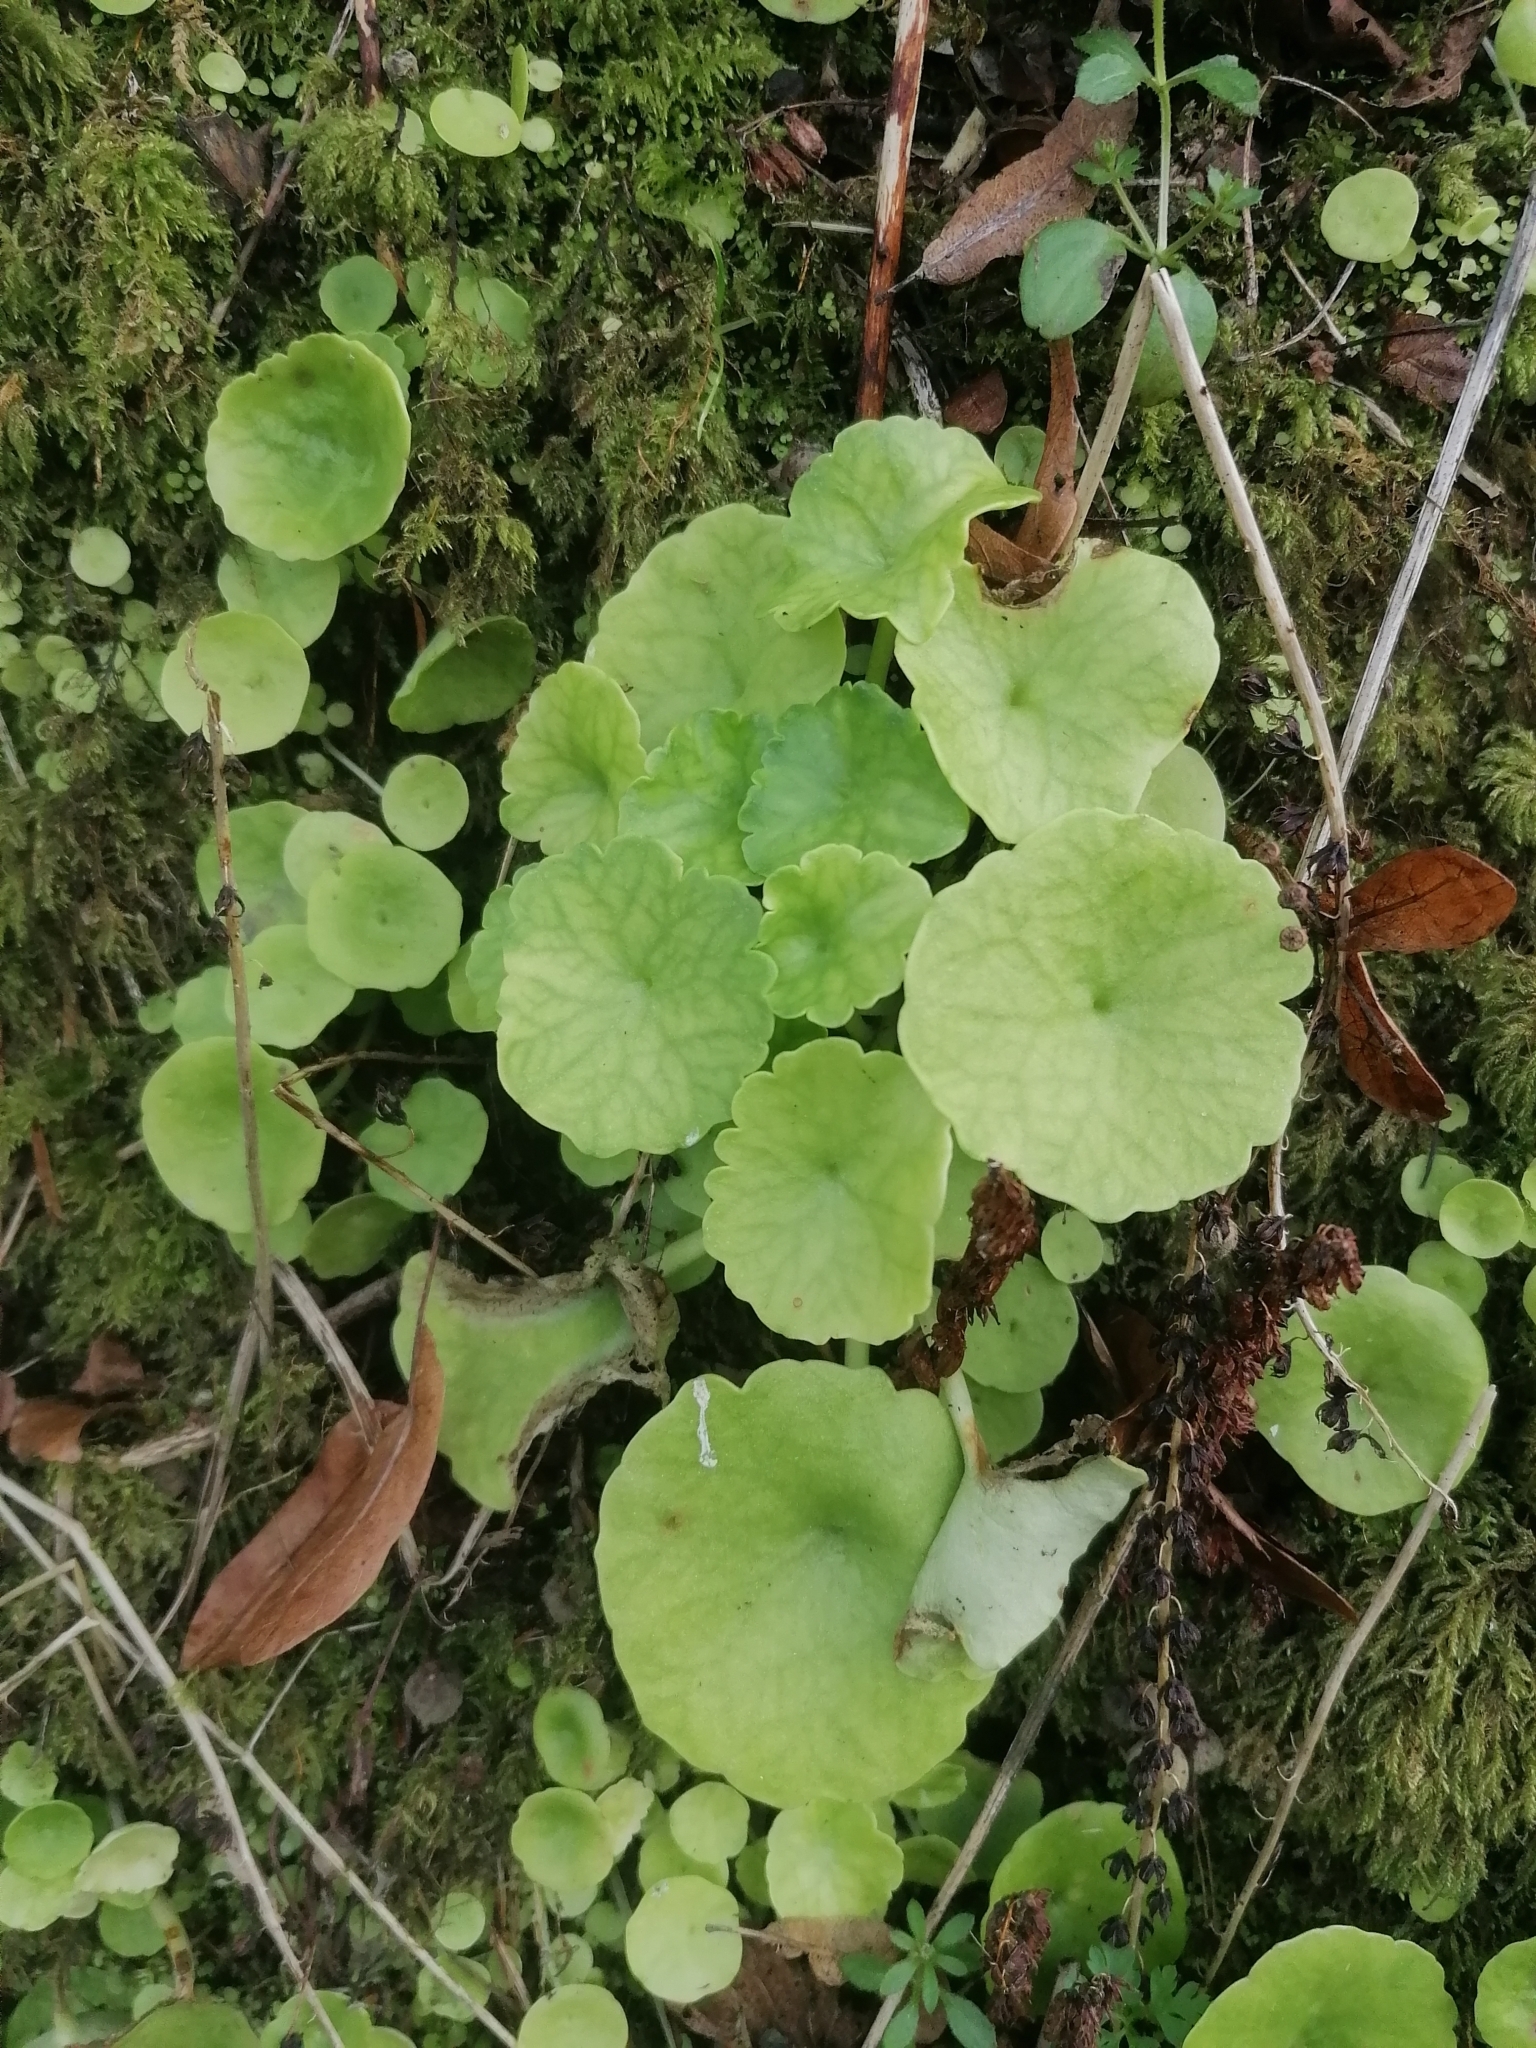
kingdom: Plantae
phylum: Tracheophyta
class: Magnoliopsida
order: Saxifragales
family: Crassulaceae
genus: Umbilicus
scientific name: Umbilicus rupestris
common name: Navelwort
